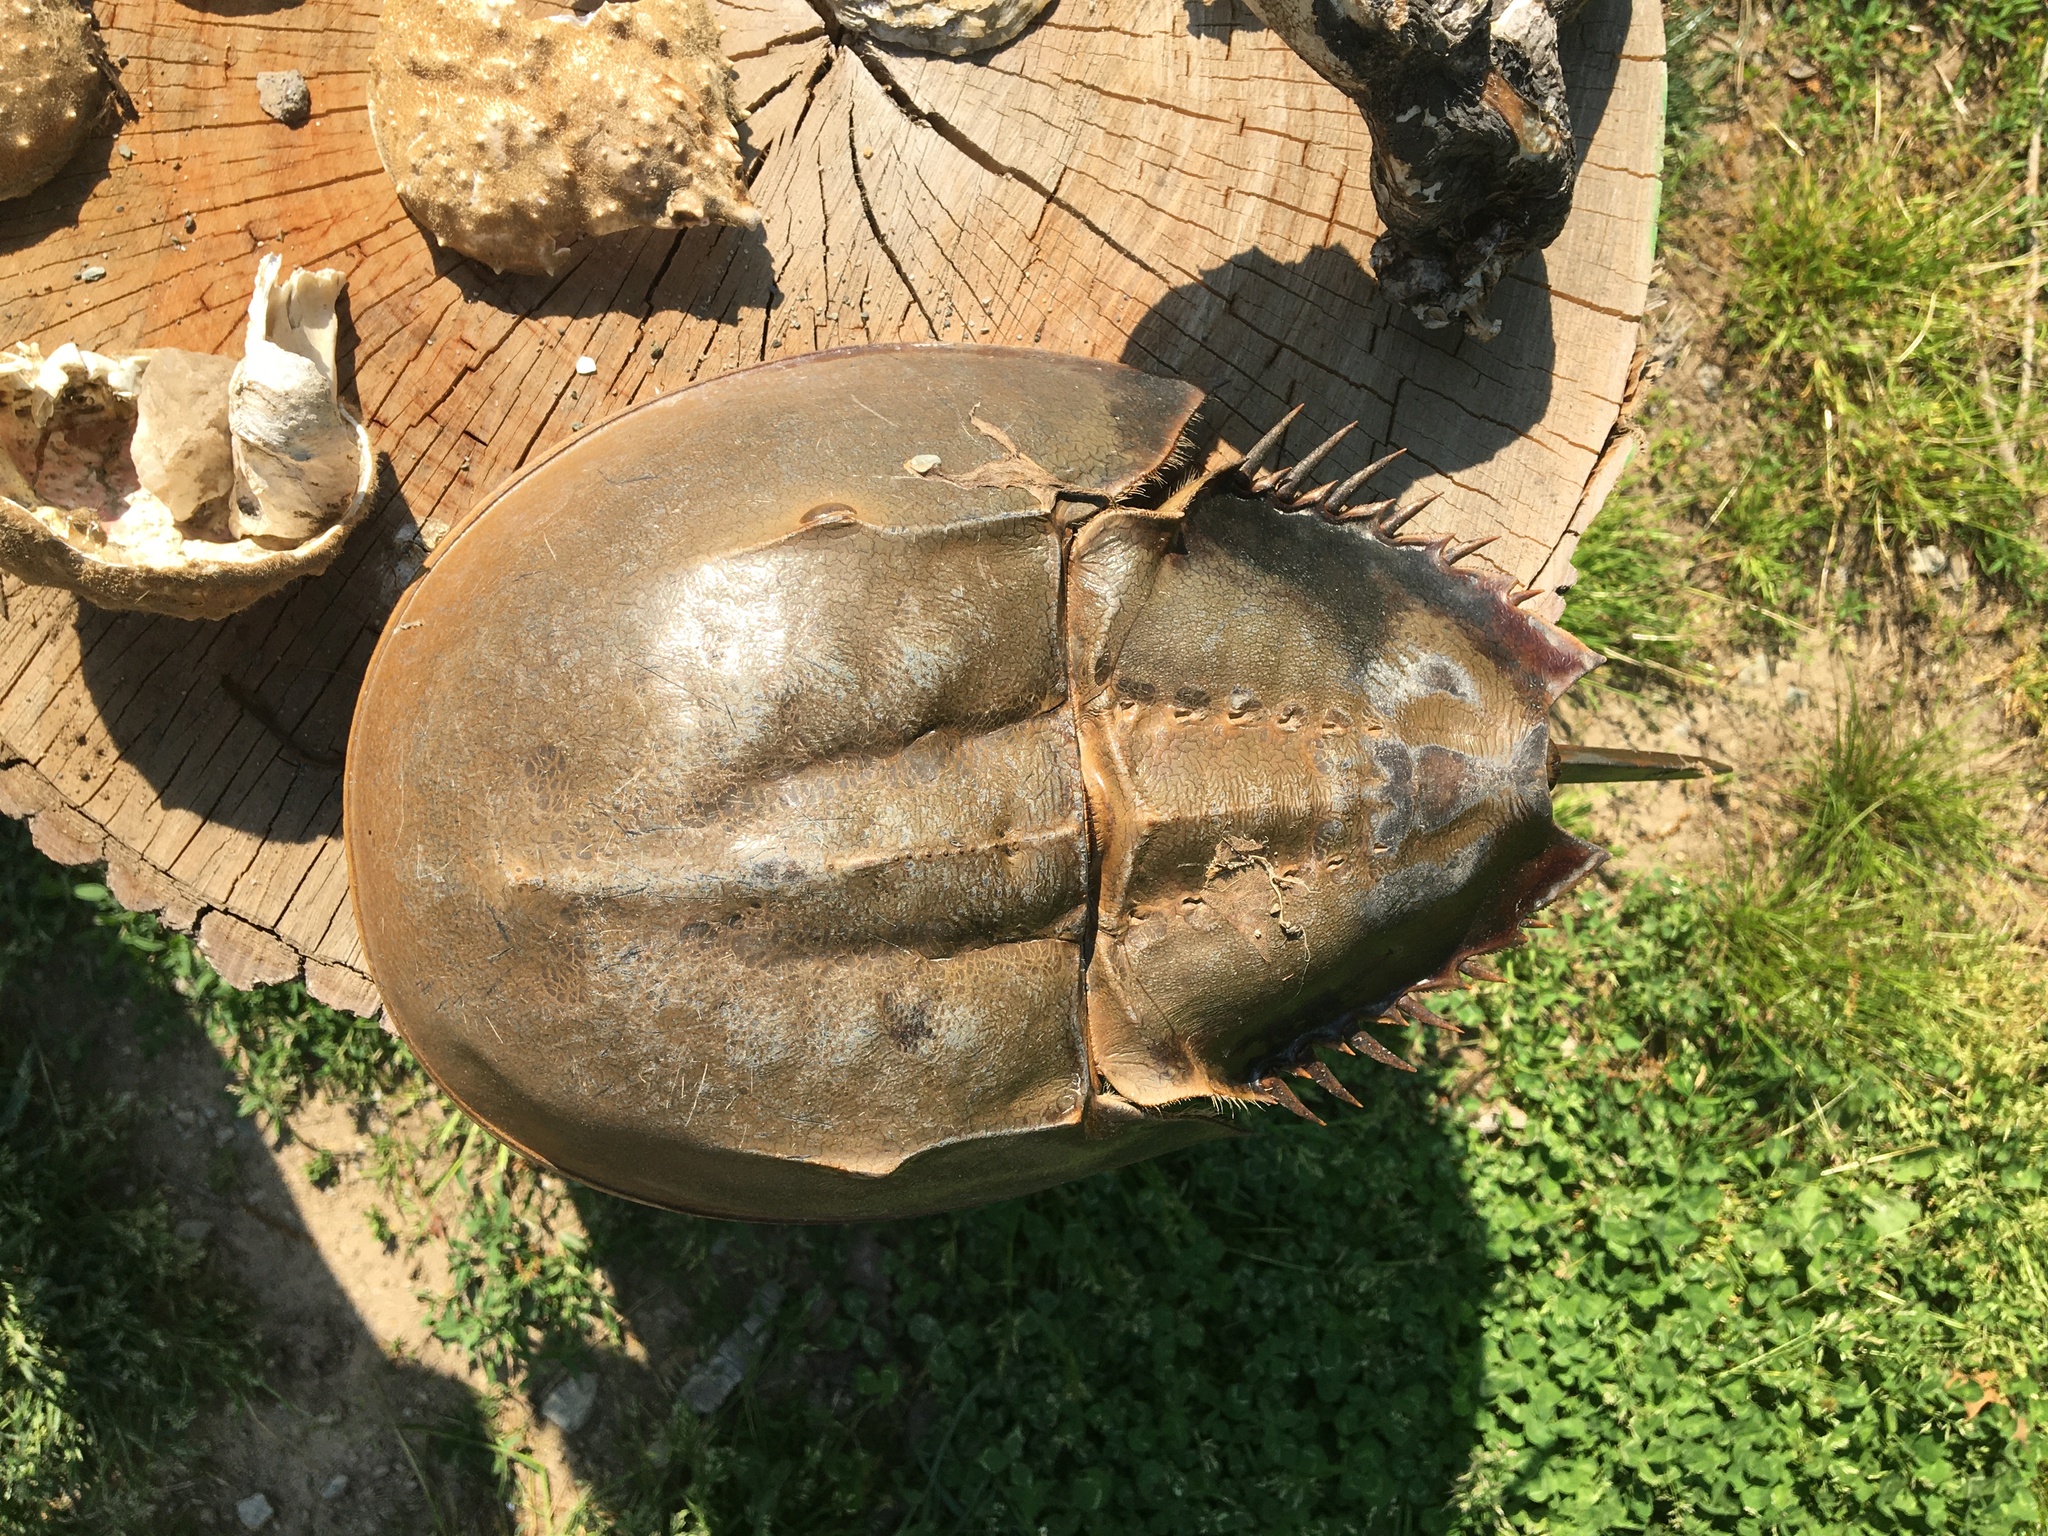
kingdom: Animalia
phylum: Arthropoda
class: Merostomata
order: Xiphosurida
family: Limulidae
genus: Limulus
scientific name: Limulus polyphemus
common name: Horseshoe crab
